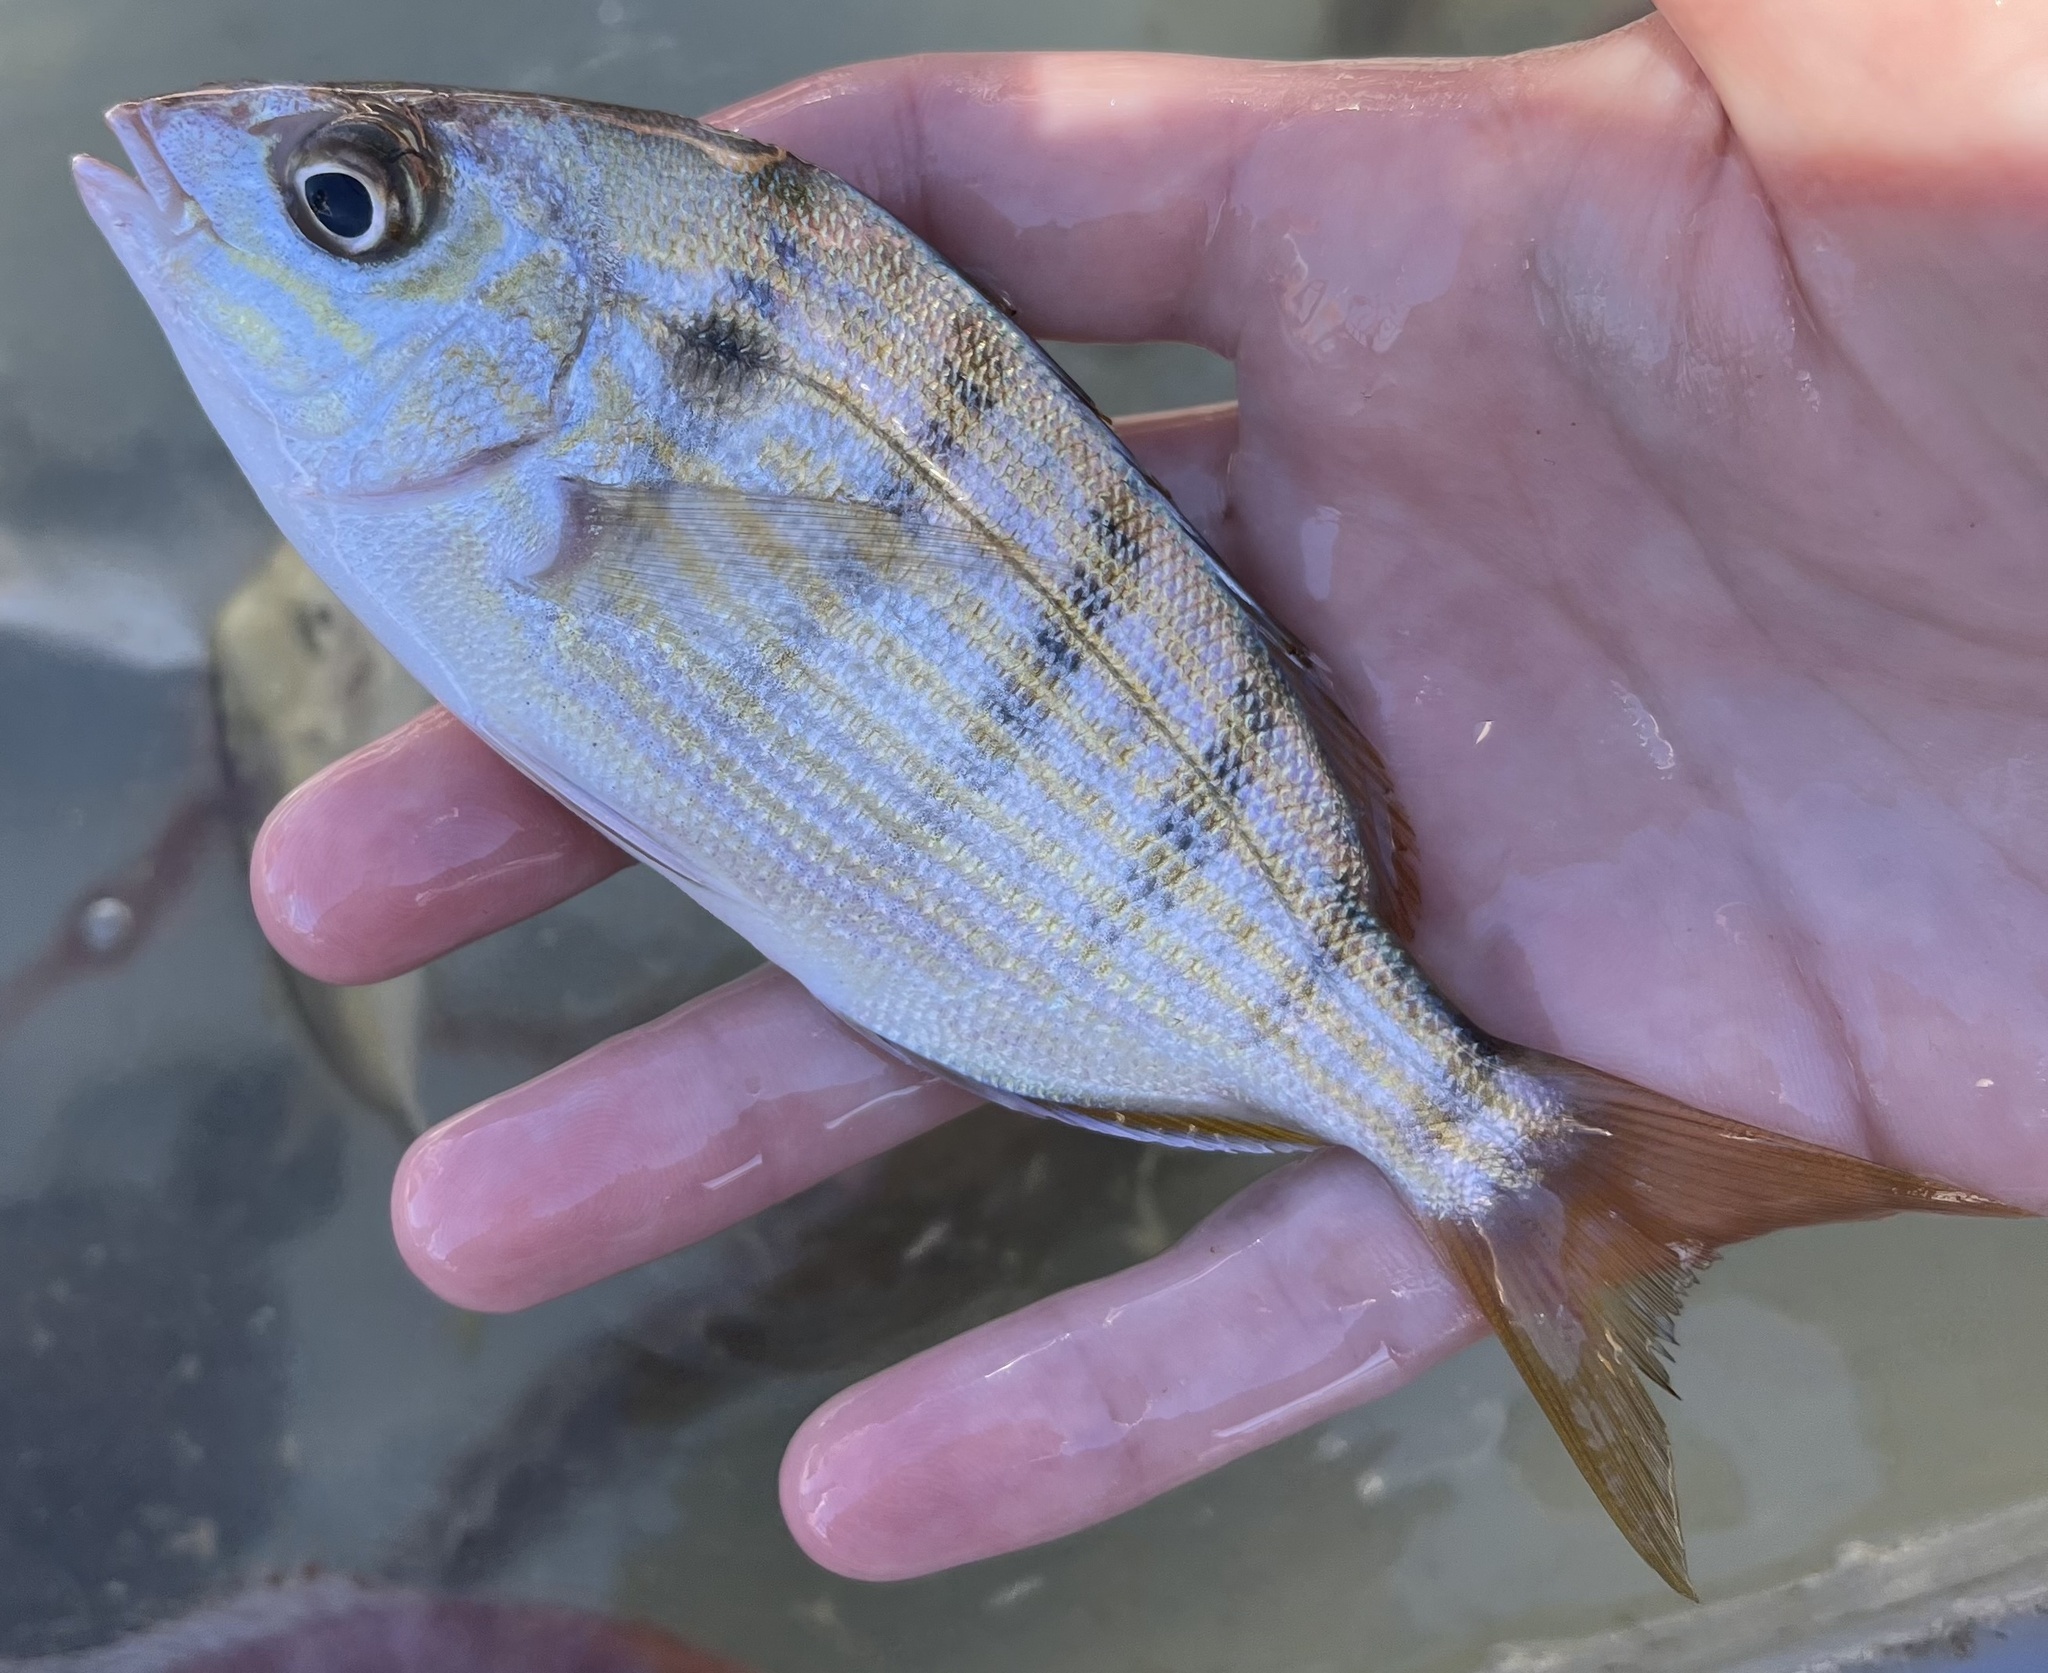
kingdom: Animalia
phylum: Chordata
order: Perciformes
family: Sparidae
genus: Lagodon
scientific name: Lagodon rhomboides
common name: Pinfish
